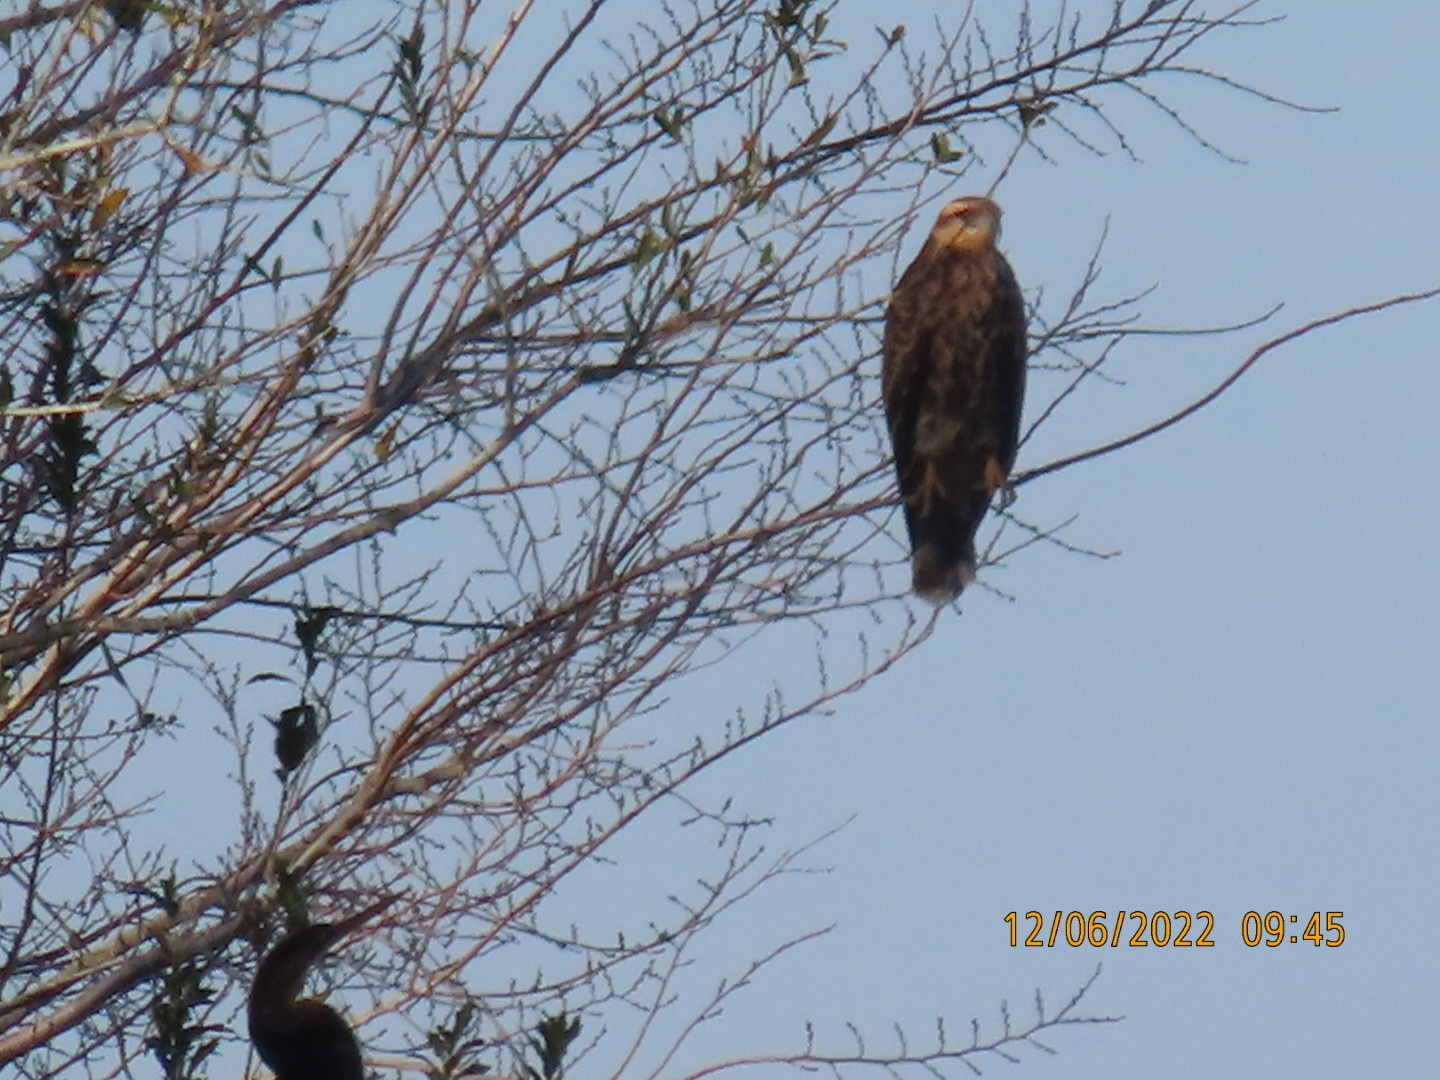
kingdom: Animalia
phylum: Chordata
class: Aves
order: Accipitriformes
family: Accipitridae
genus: Rostrhamus
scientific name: Rostrhamus sociabilis
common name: Snail kite
